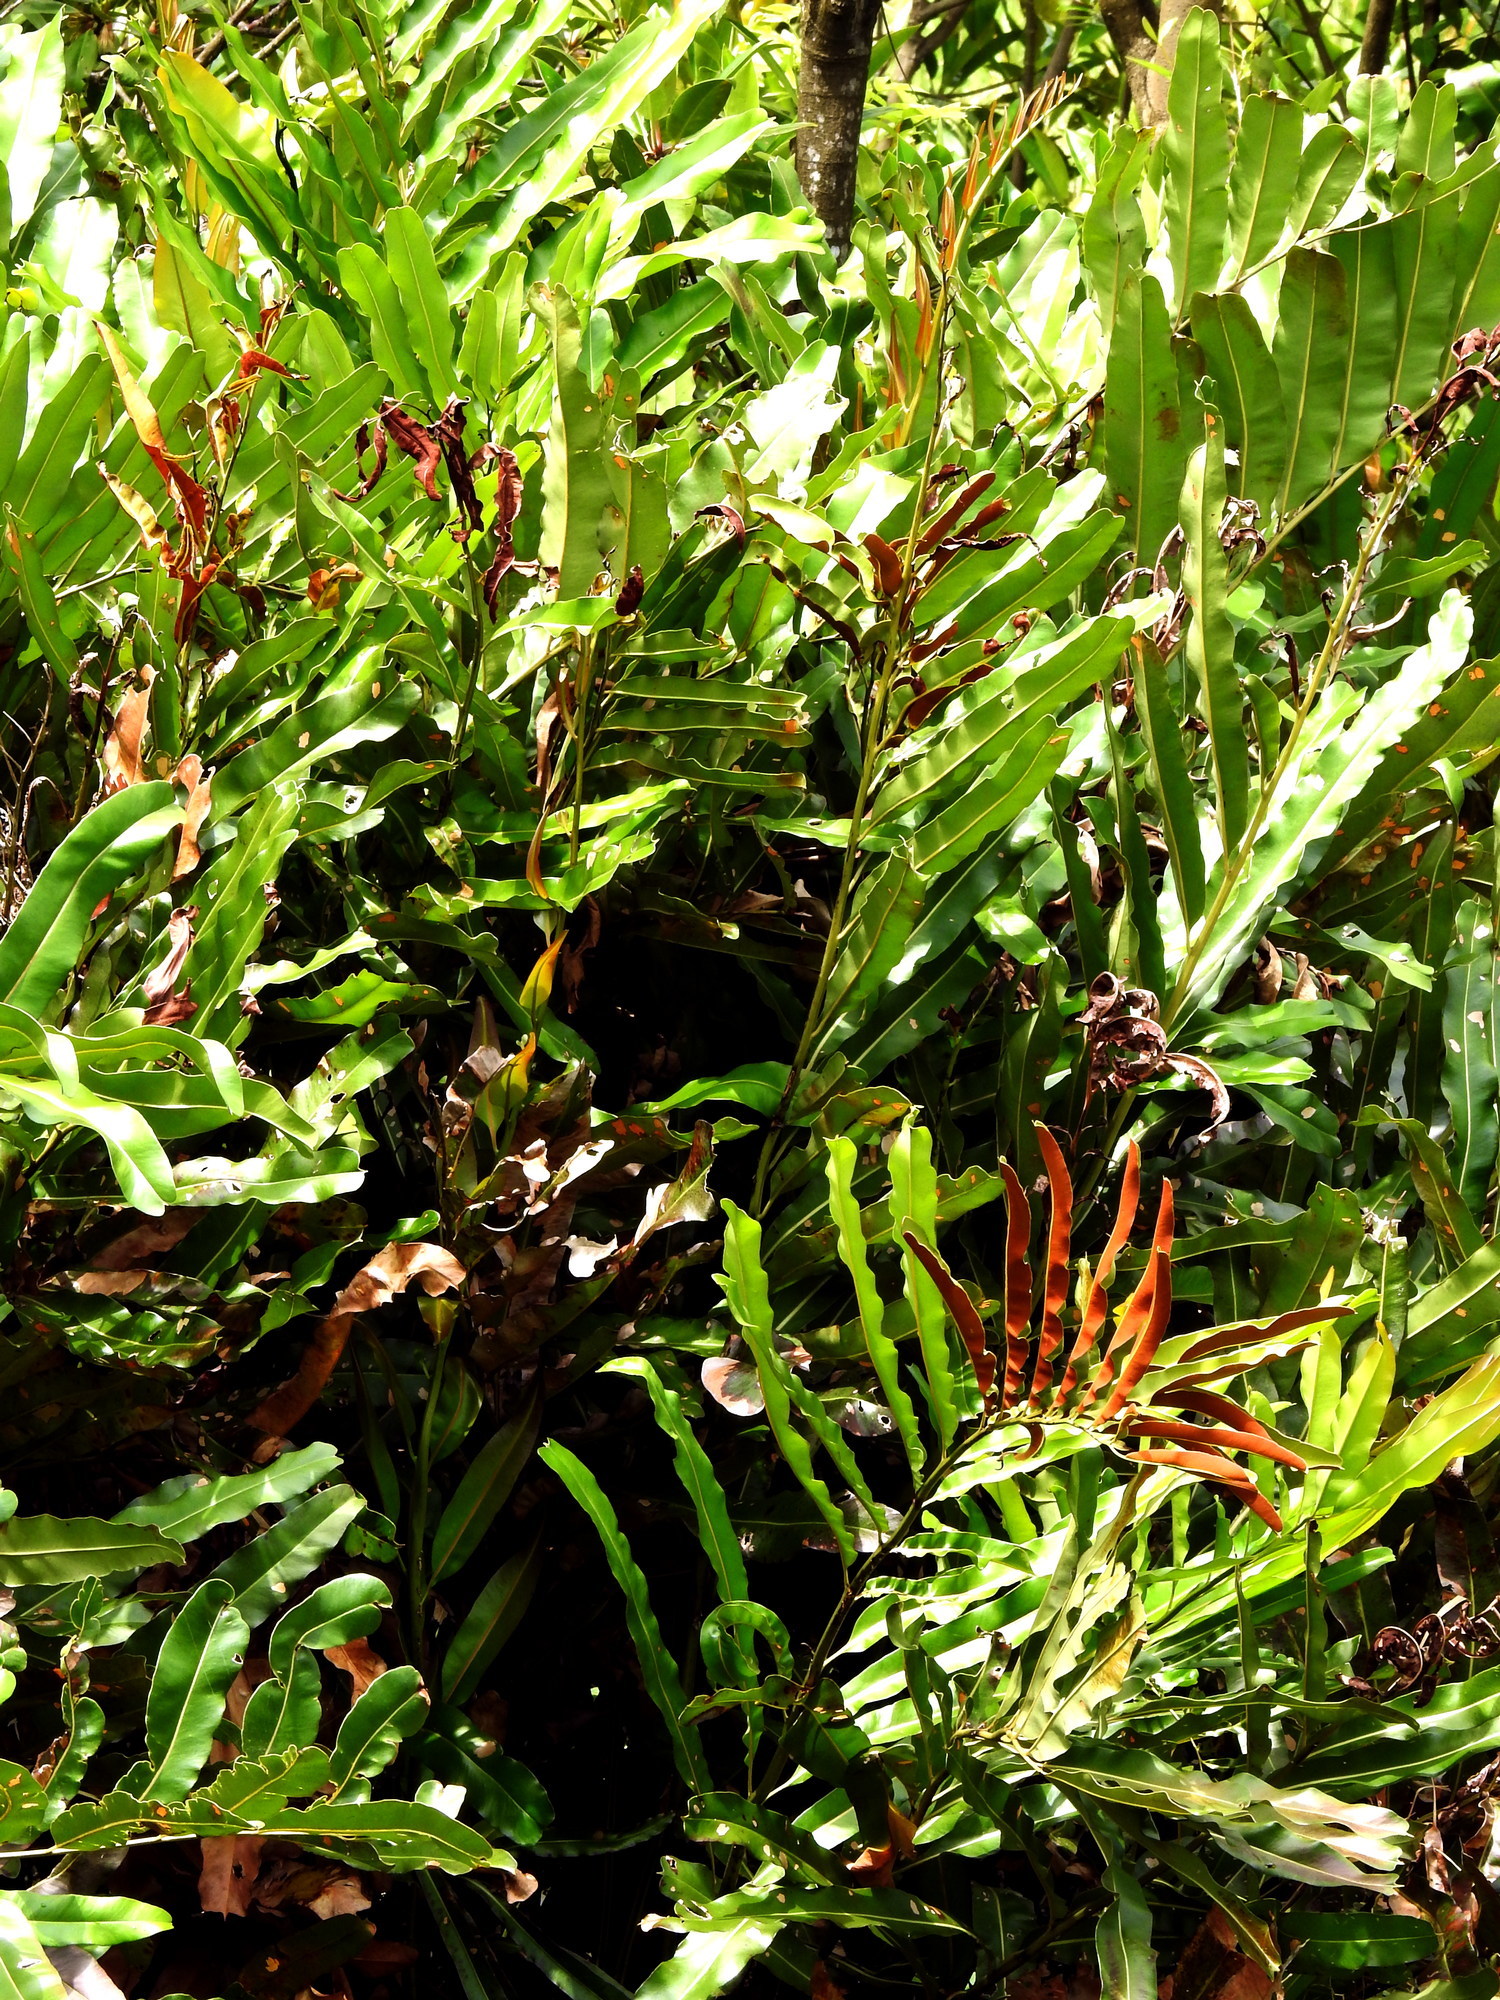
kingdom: Plantae
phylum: Tracheophyta
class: Polypodiopsida
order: Polypodiales
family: Pteridaceae
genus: Acrostichum
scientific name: Acrostichum aureum
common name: Leather fern
